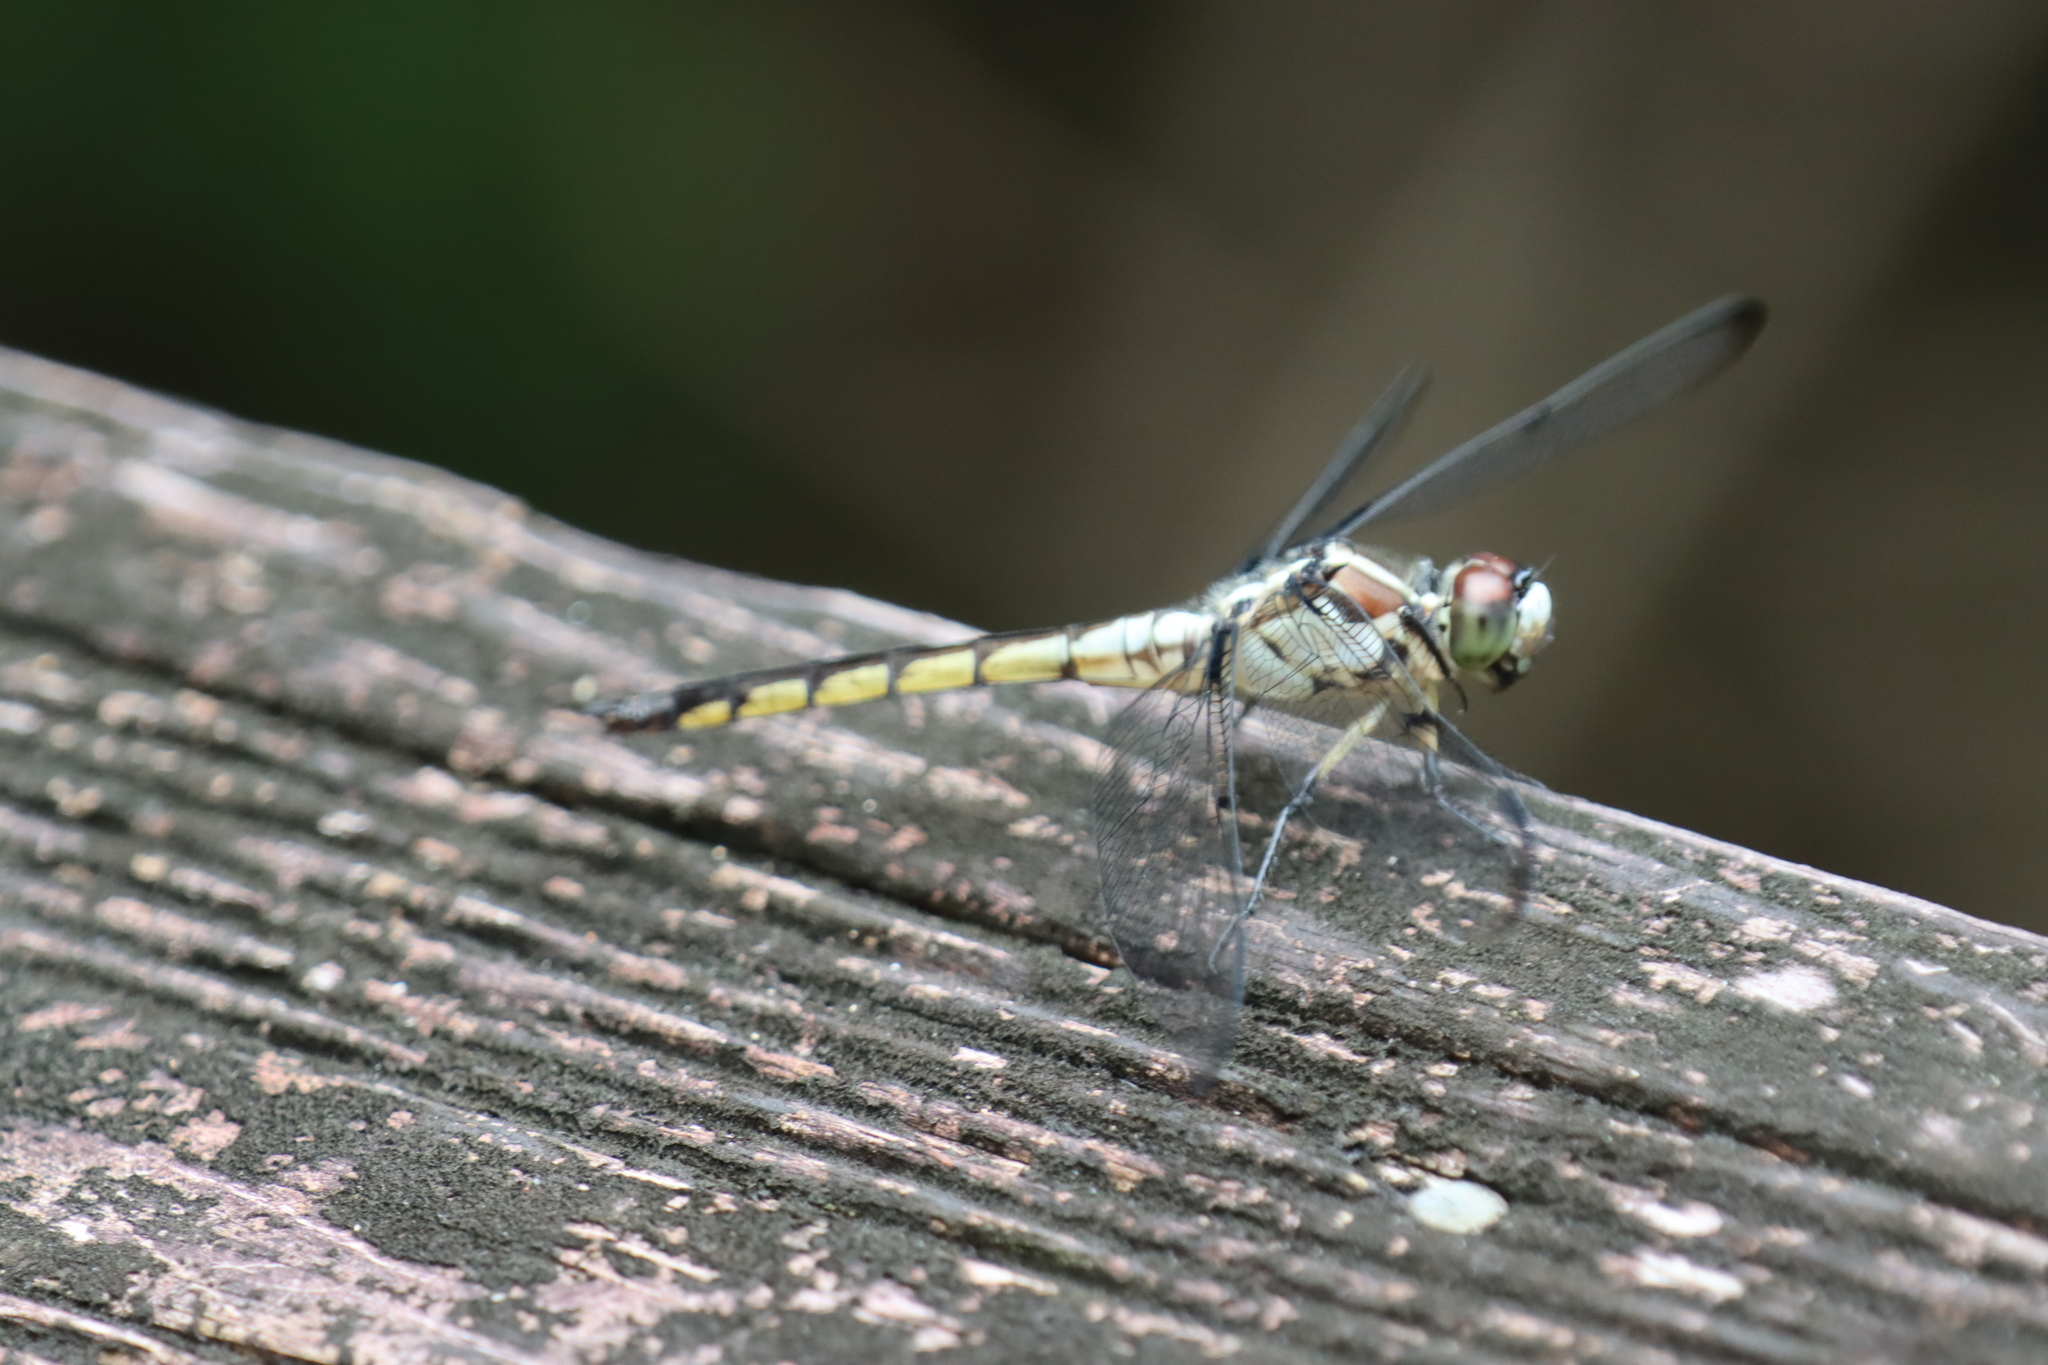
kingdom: Animalia
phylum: Arthropoda
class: Insecta
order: Odonata
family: Libellulidae
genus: Libellula
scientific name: Libellula vibrans
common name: Great blue skimmer
